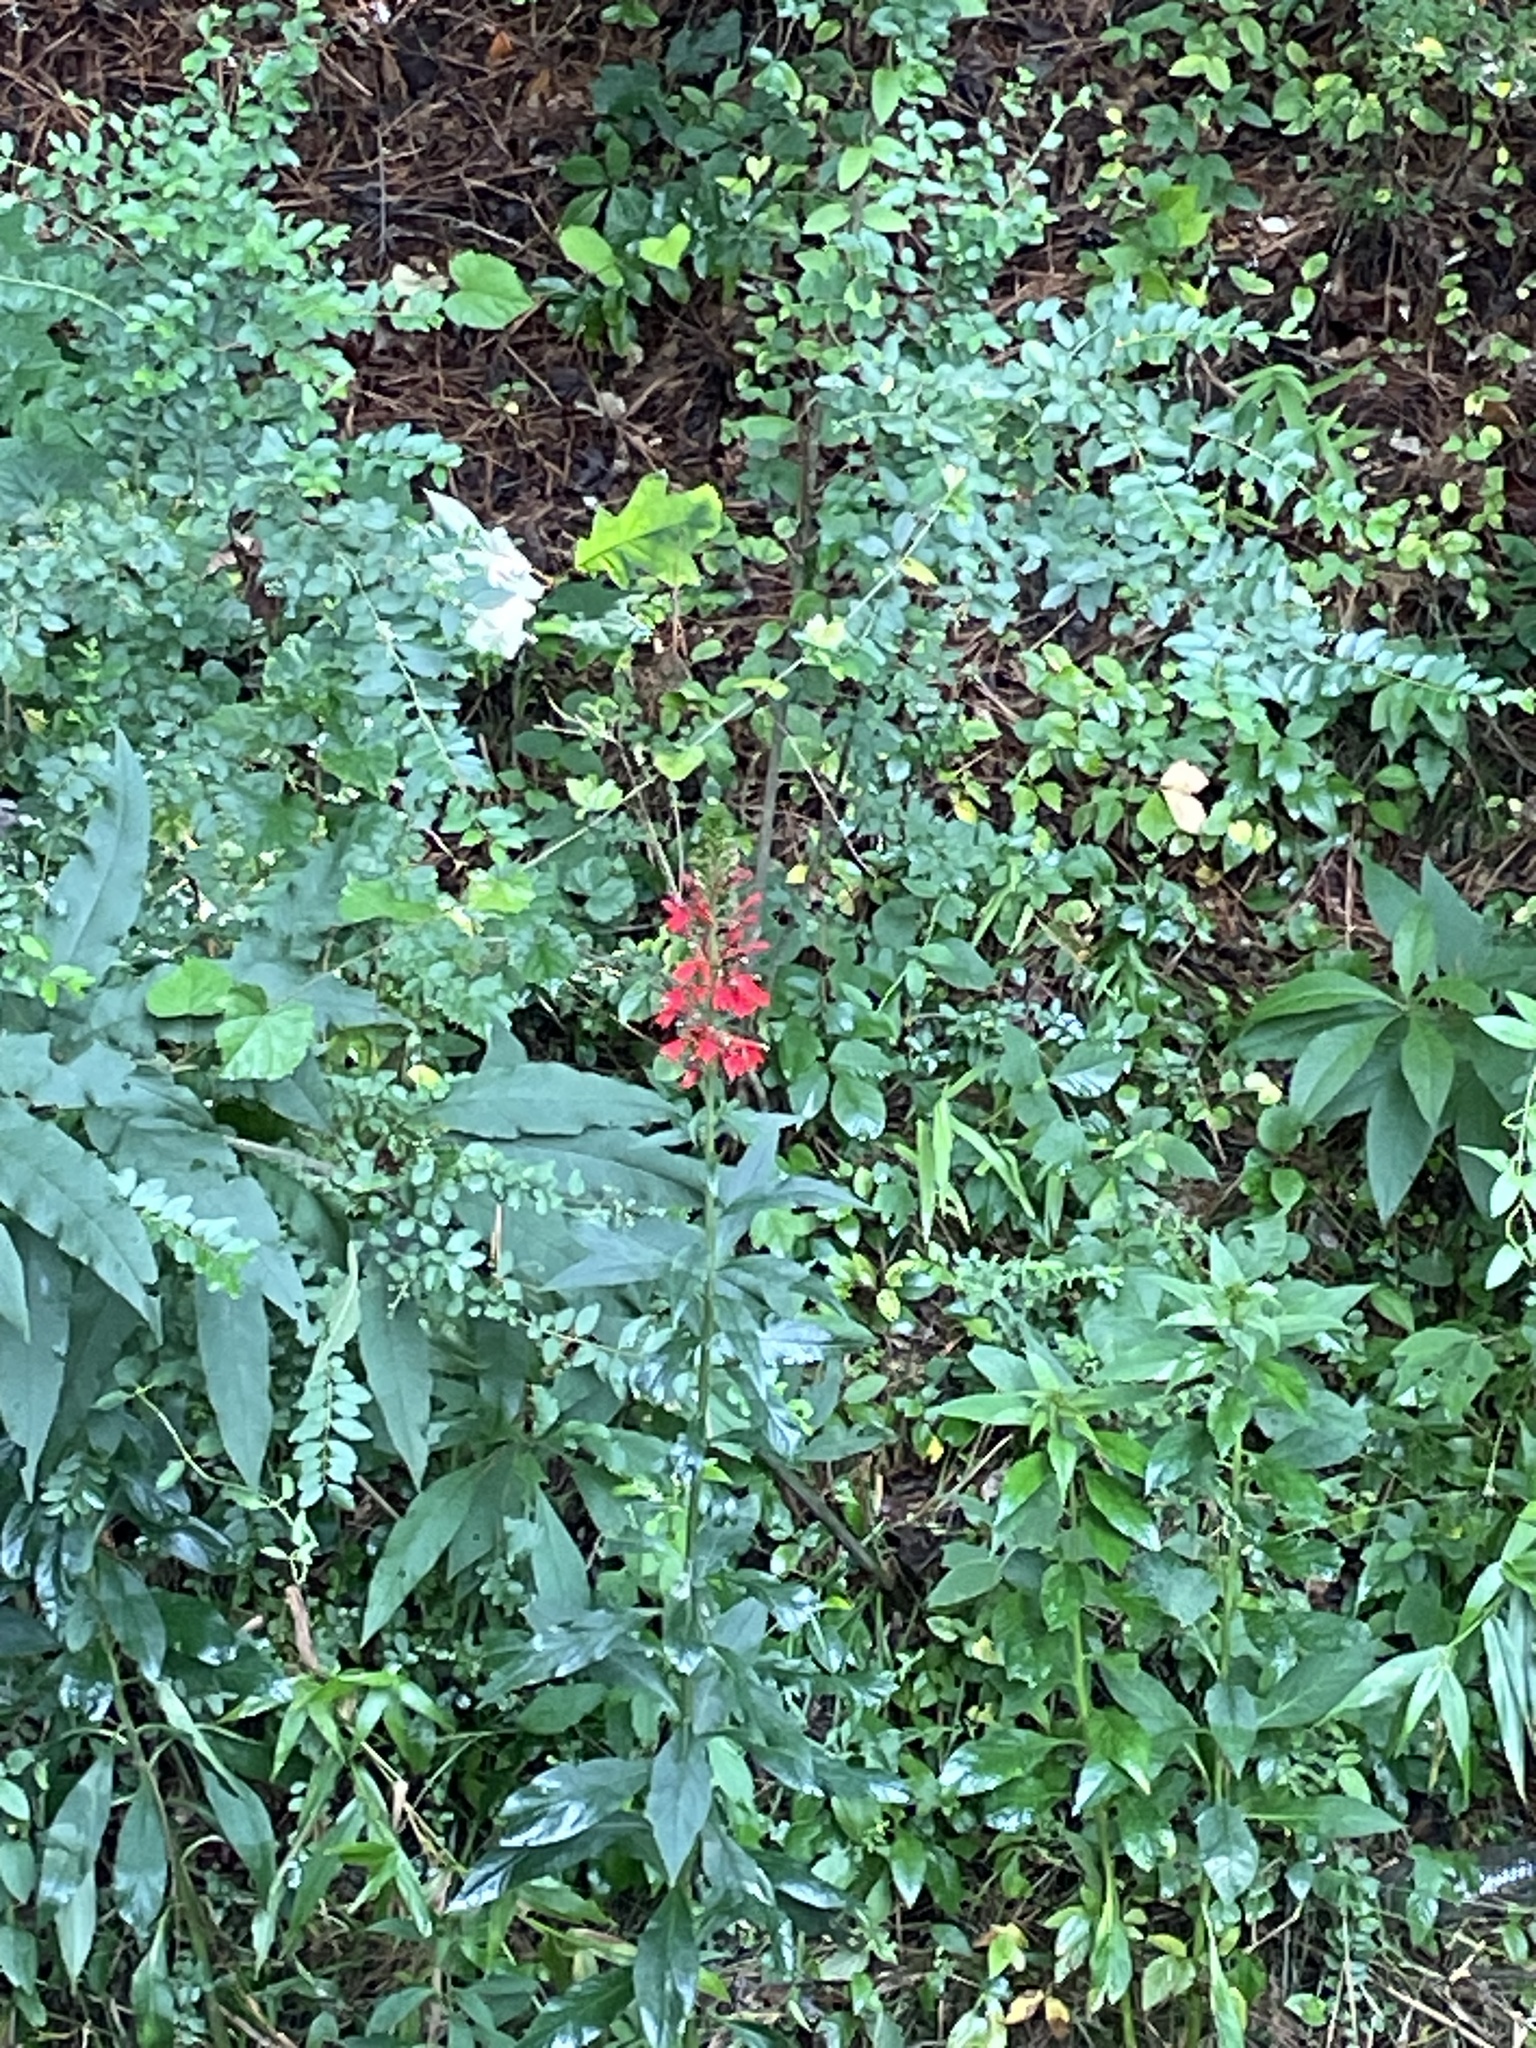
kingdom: Plantae
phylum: Tracheophyta
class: Magnoliopsida
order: Asterales
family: Campanulaceae
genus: Lobelia
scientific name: Lobelia cardinalis
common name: Cardinal flower
